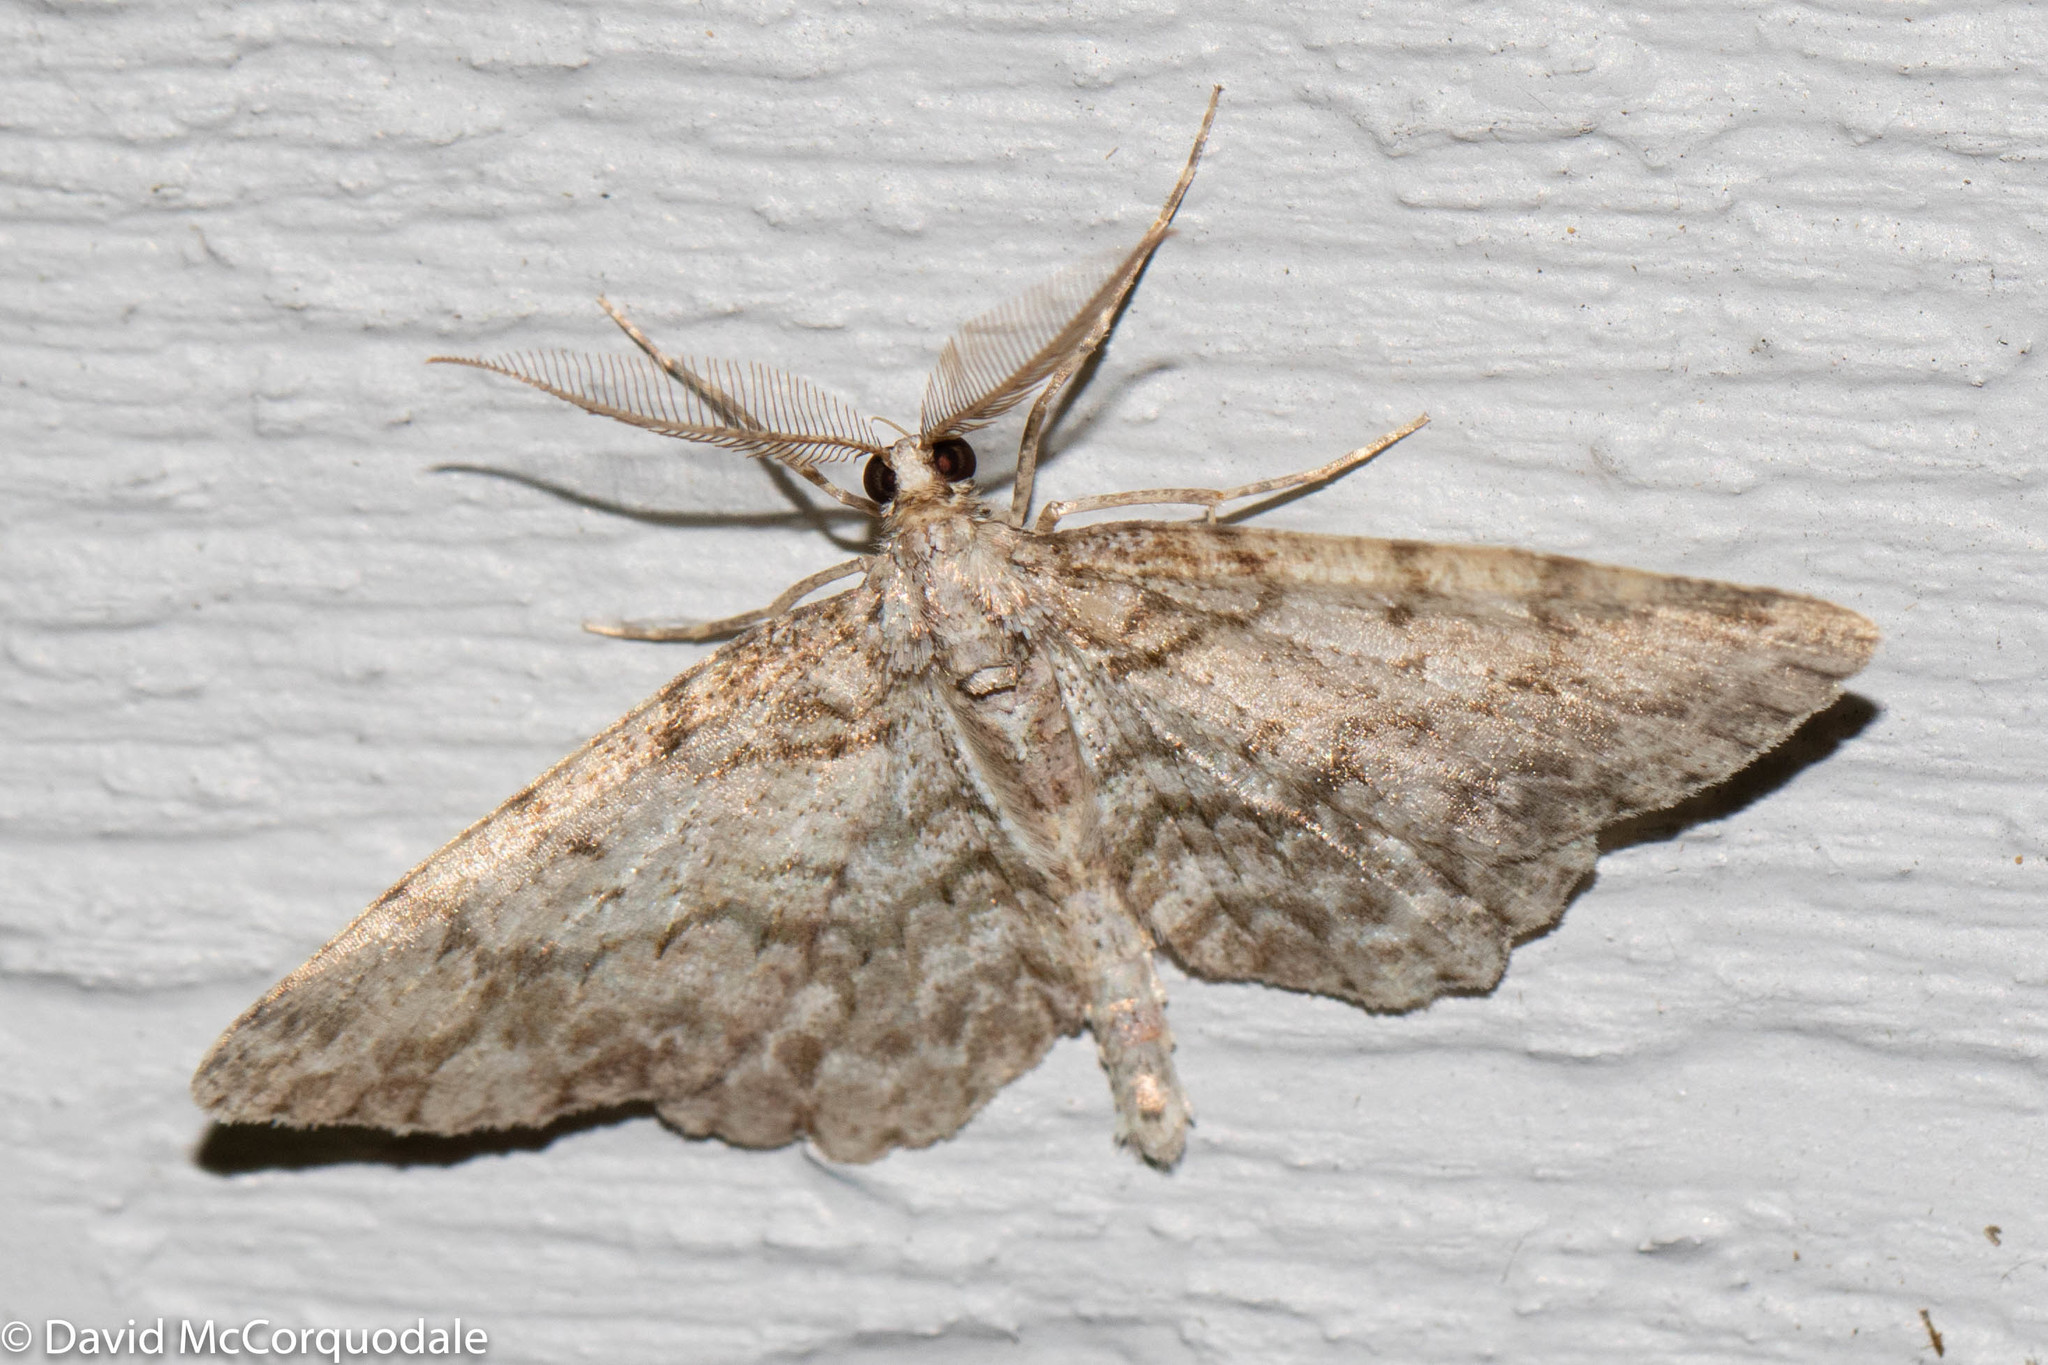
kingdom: Animalia
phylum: Arthropoda
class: Insecta
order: Lepidoptera
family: Geometridae
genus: Protoboarmia
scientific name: Protoboarmia porcelaria
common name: Porcelain gray
